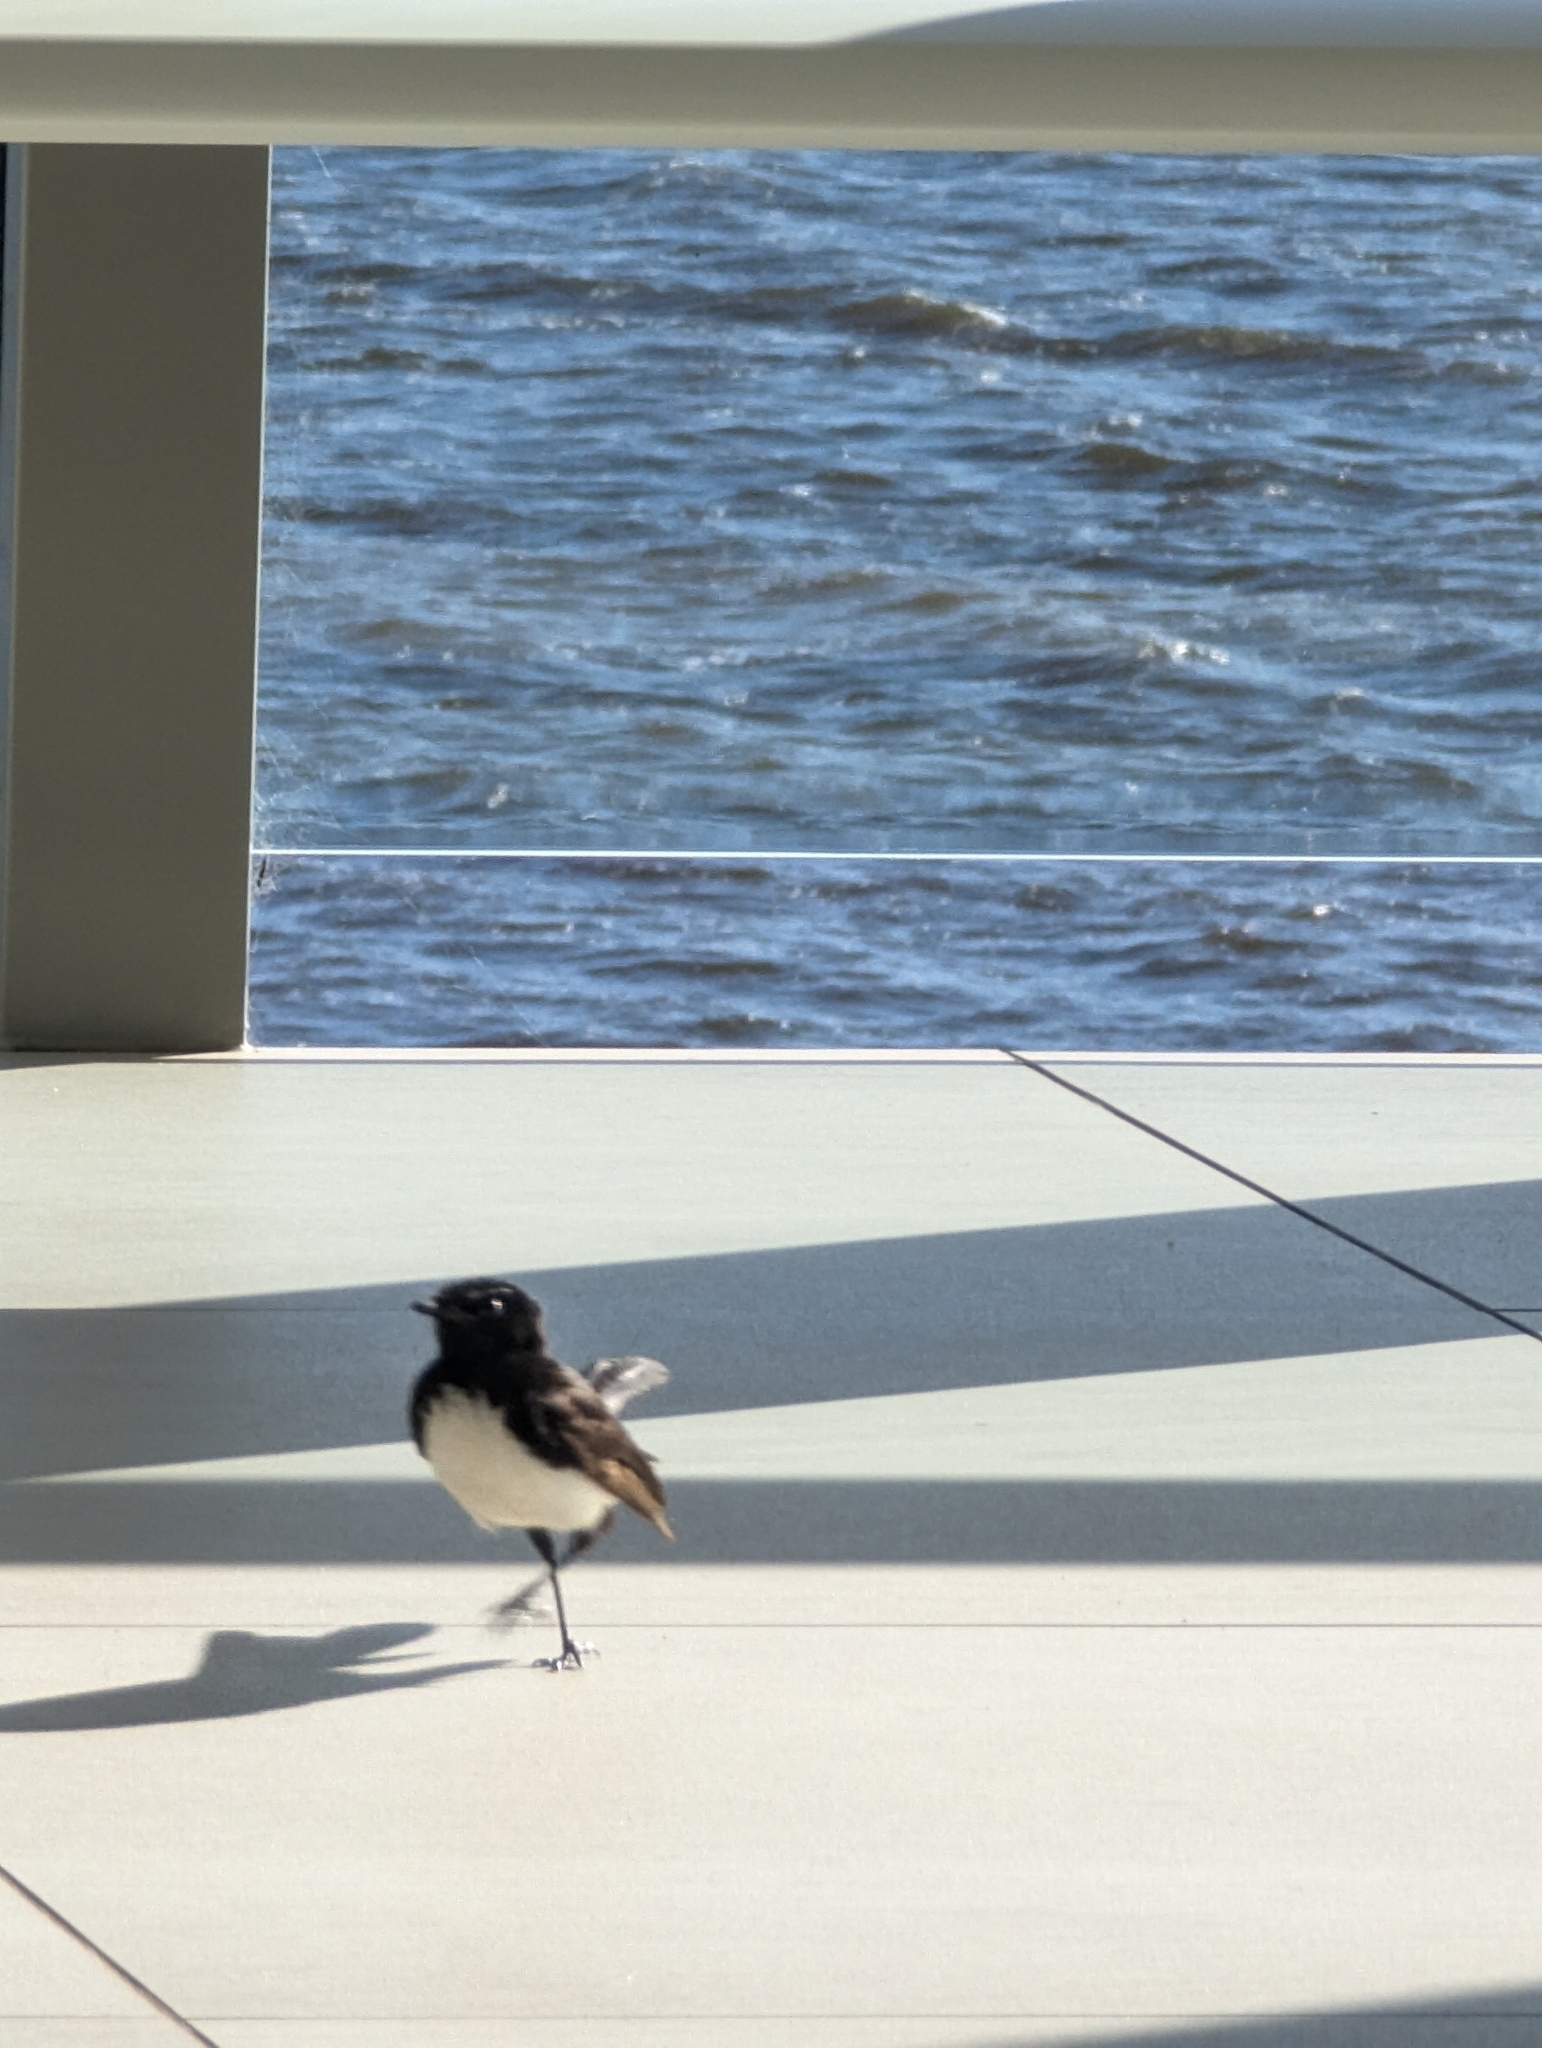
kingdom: Animalia
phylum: Chordata
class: Aves
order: Passeriformes
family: Rhipiduridae
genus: Rhipidura
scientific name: Rhipidura leucophrys
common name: Willie wagtail
